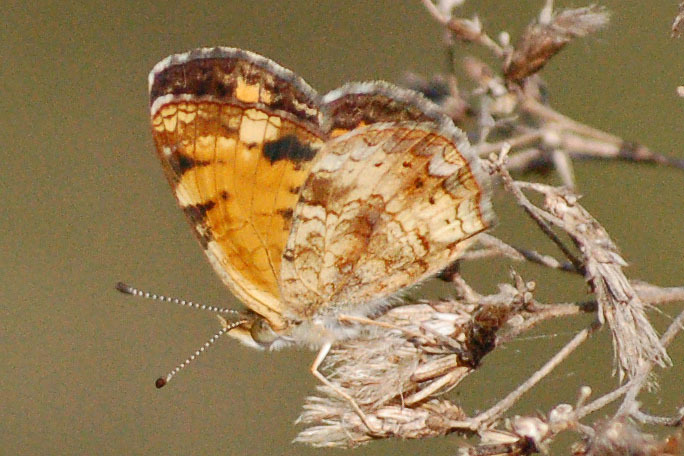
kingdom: Animalia
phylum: Arthropoda
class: Insecta
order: Lepidoptera
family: Nymphalidae
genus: Phyciodes
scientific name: Phyciodes tharos
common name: Pearl crescent
